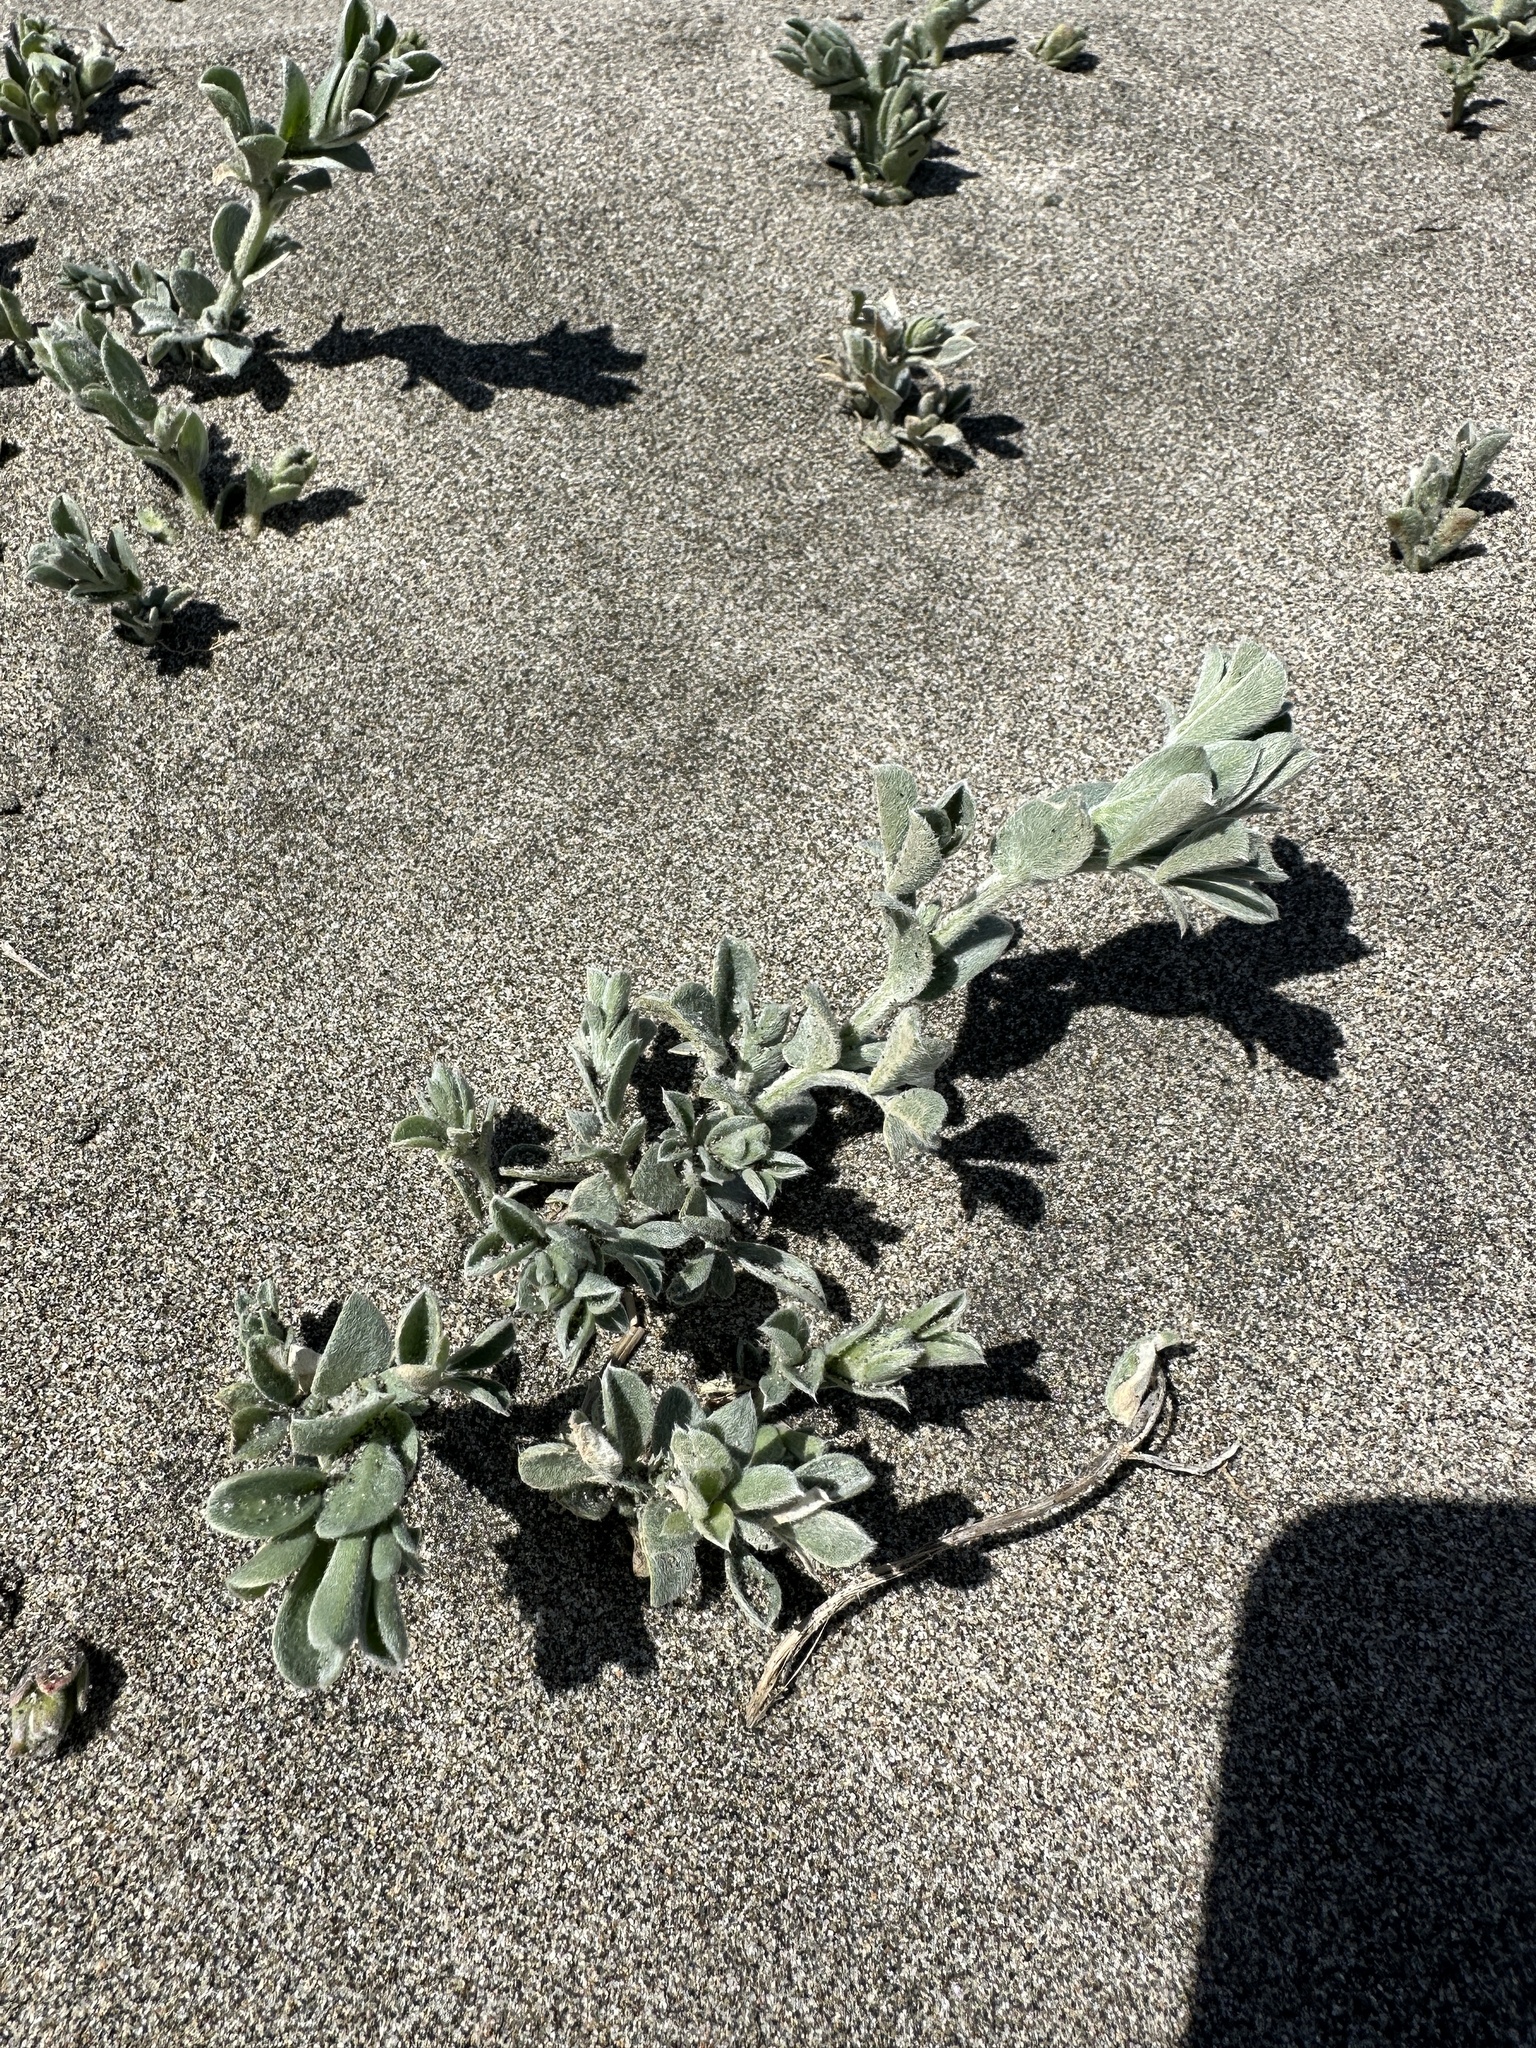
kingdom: Plantae
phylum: Tracheophyta
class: Magnoliopsida
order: Fabales
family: Fabaceae
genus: Lathyrus
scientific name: Lathyrus littoralis
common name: Dune sweet pea
